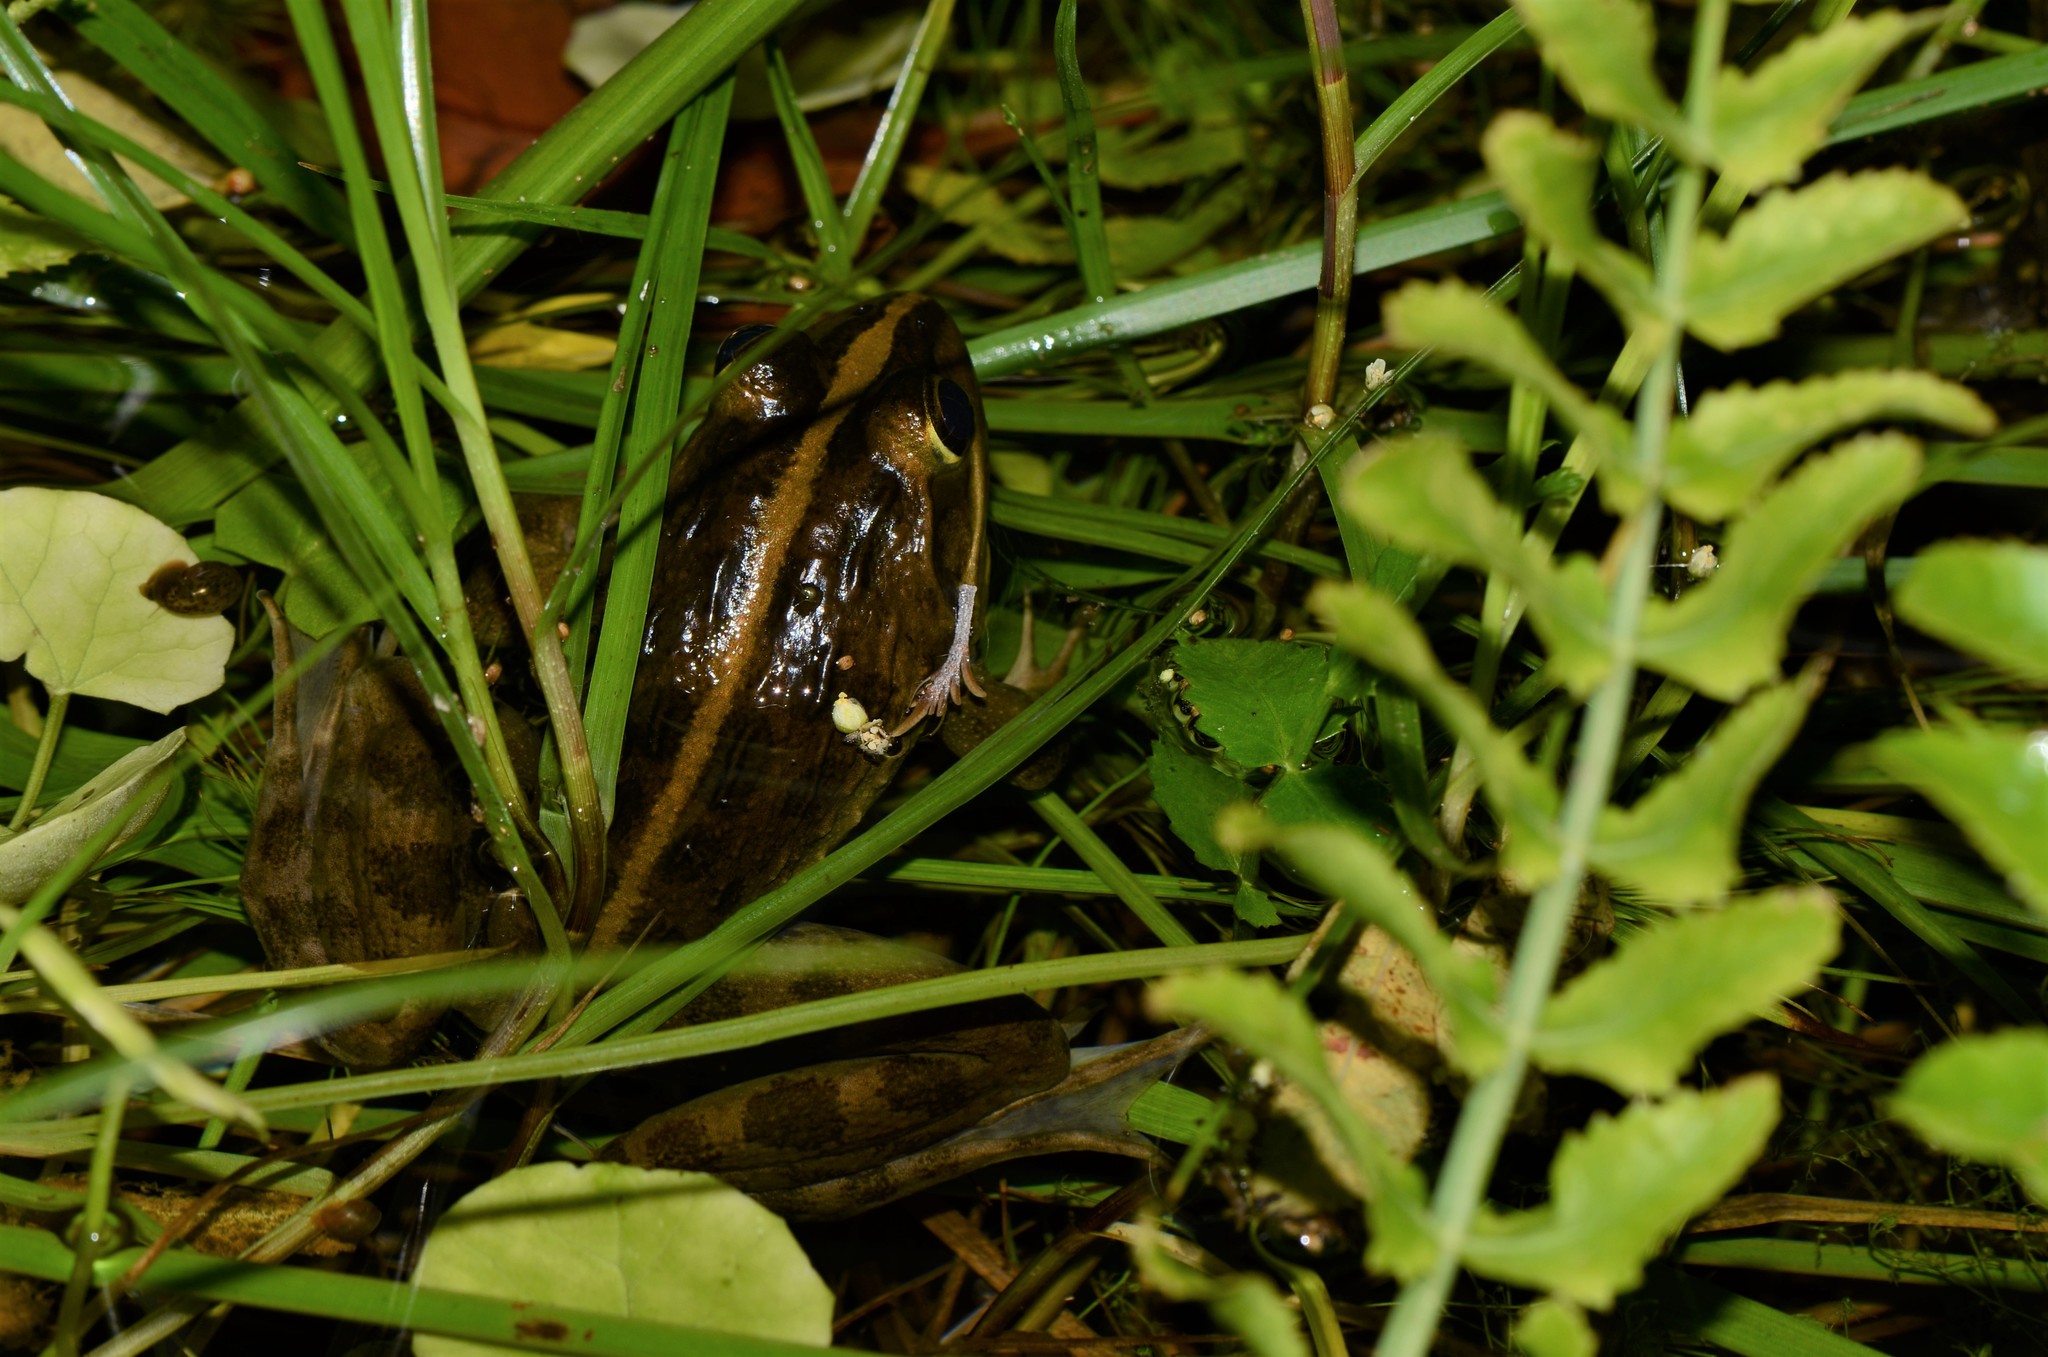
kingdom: Animalia
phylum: Chordata
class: Amphibia
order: Anura
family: Pyxicephalidae
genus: Amietia
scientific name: Amietia fuscigula
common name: Cape rana
